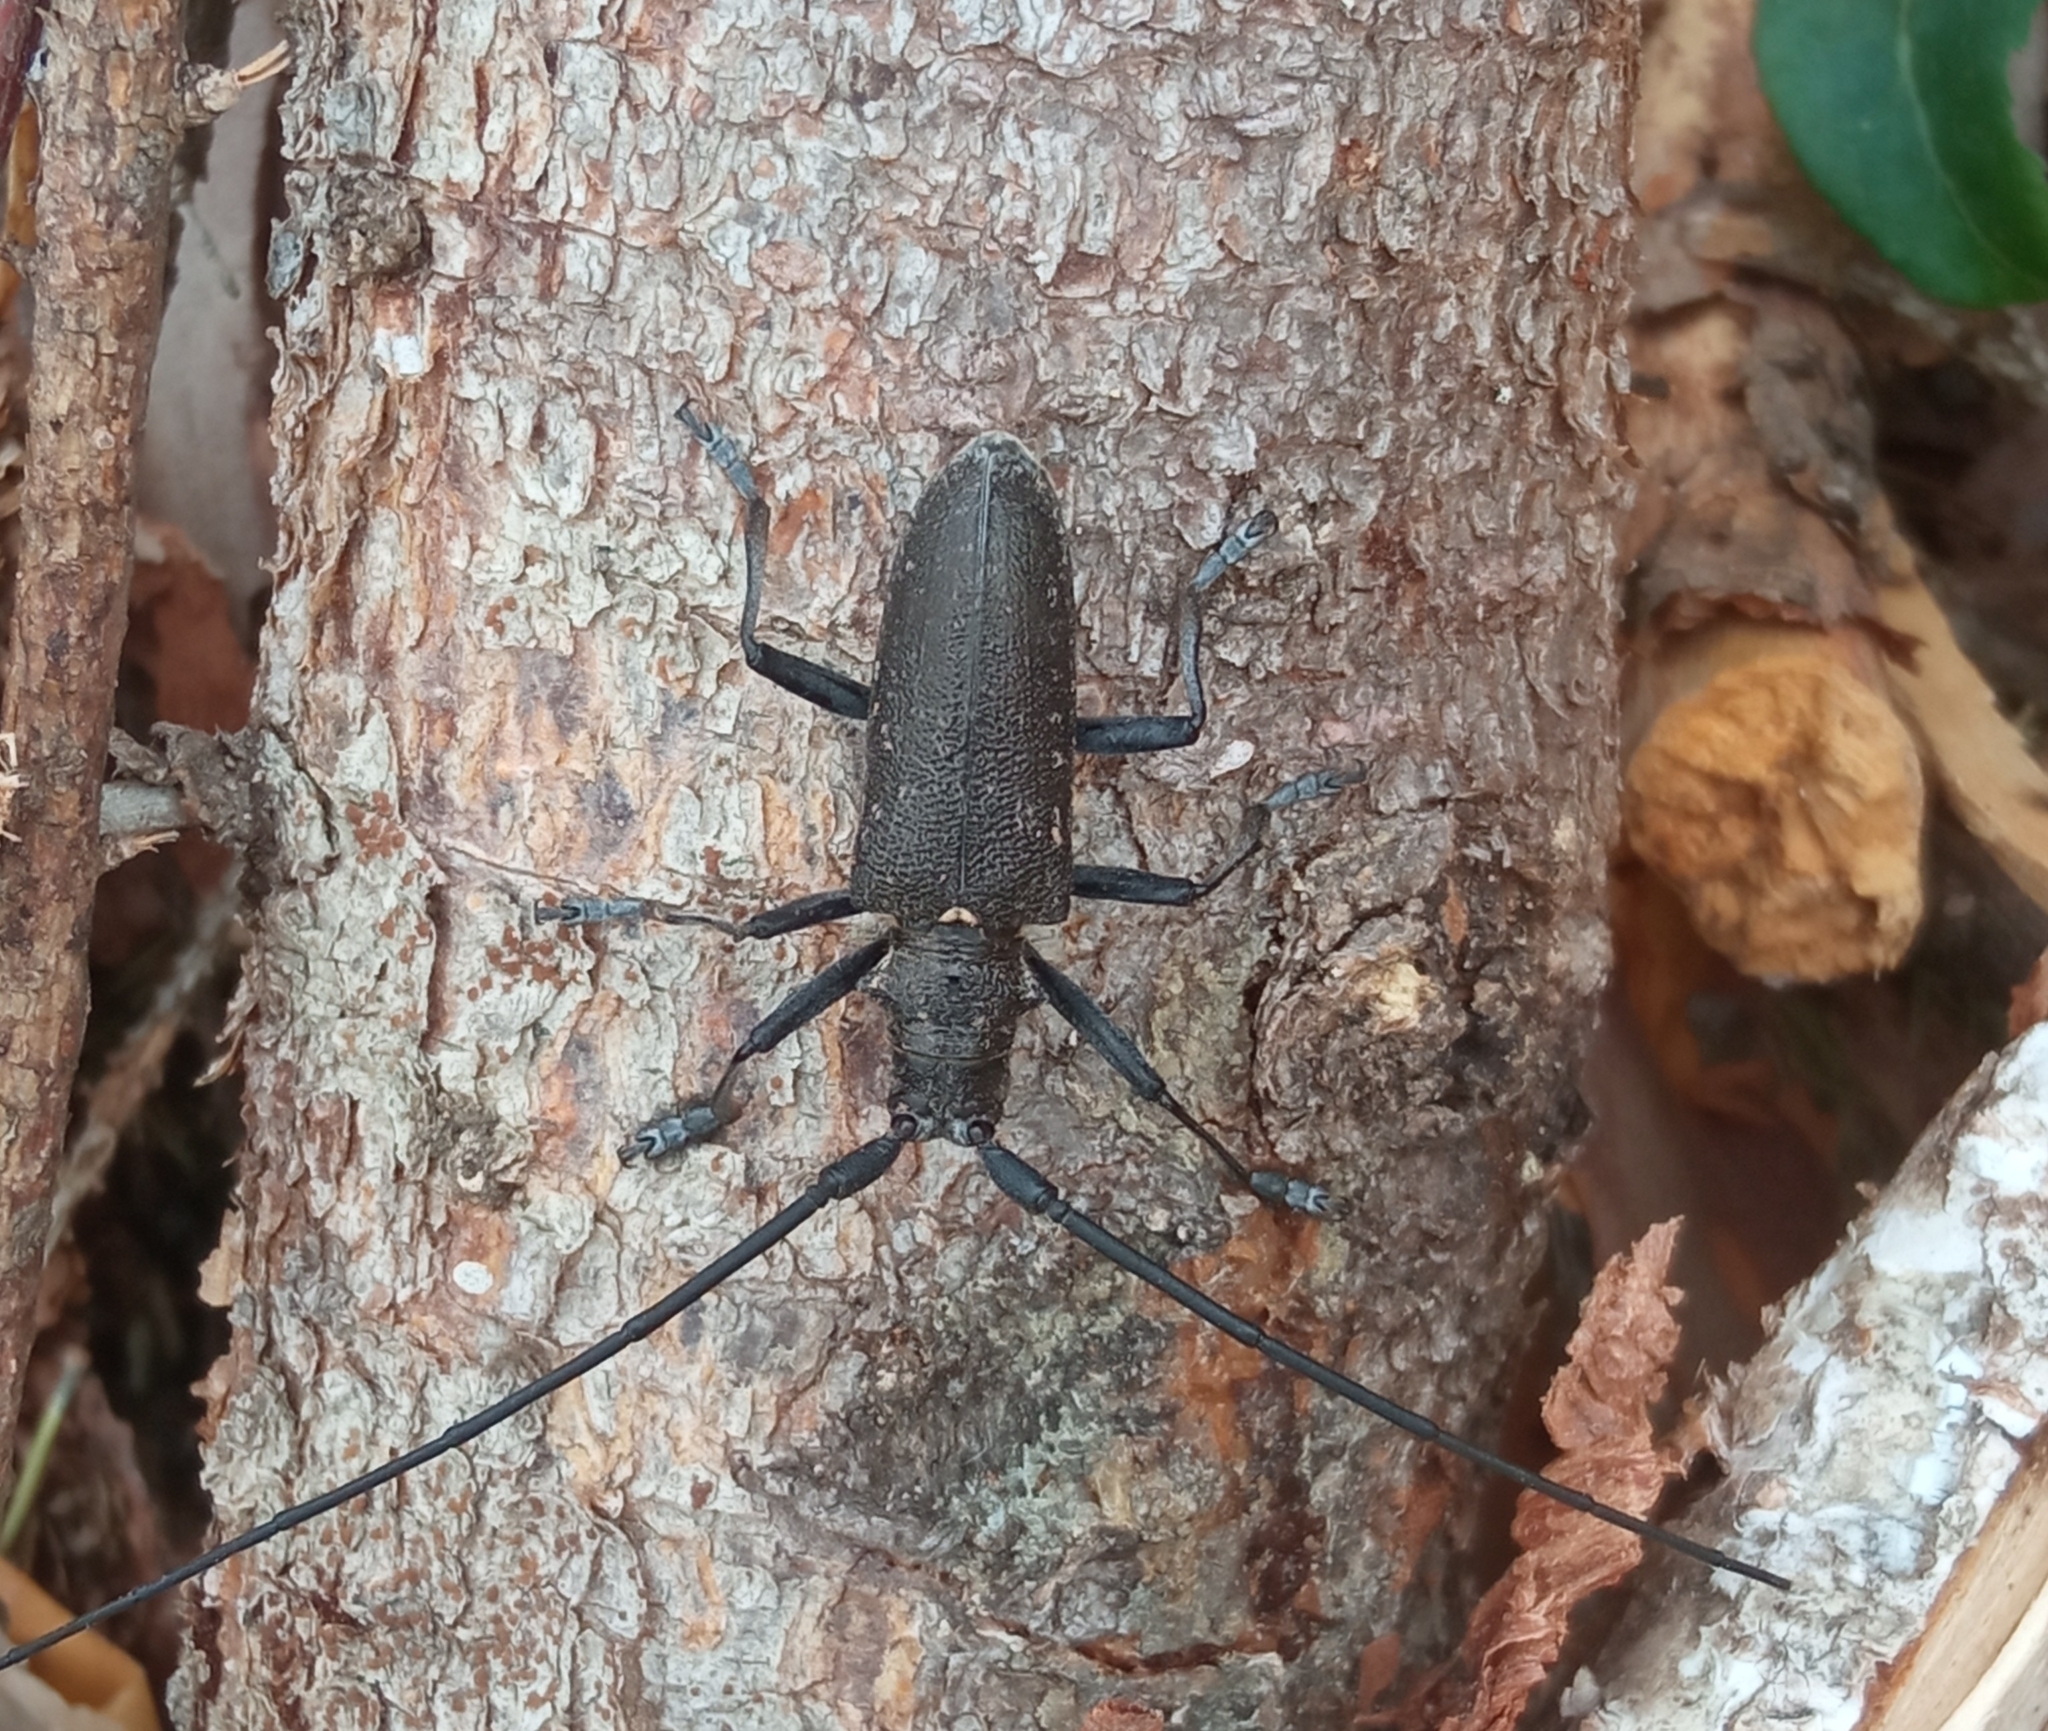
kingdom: Animalia
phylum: Arthropoda
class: Insecta
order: Coleoptera
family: Cerambycidae
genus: Monochamus
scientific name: Monochamus sutor
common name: Pine sawyer
